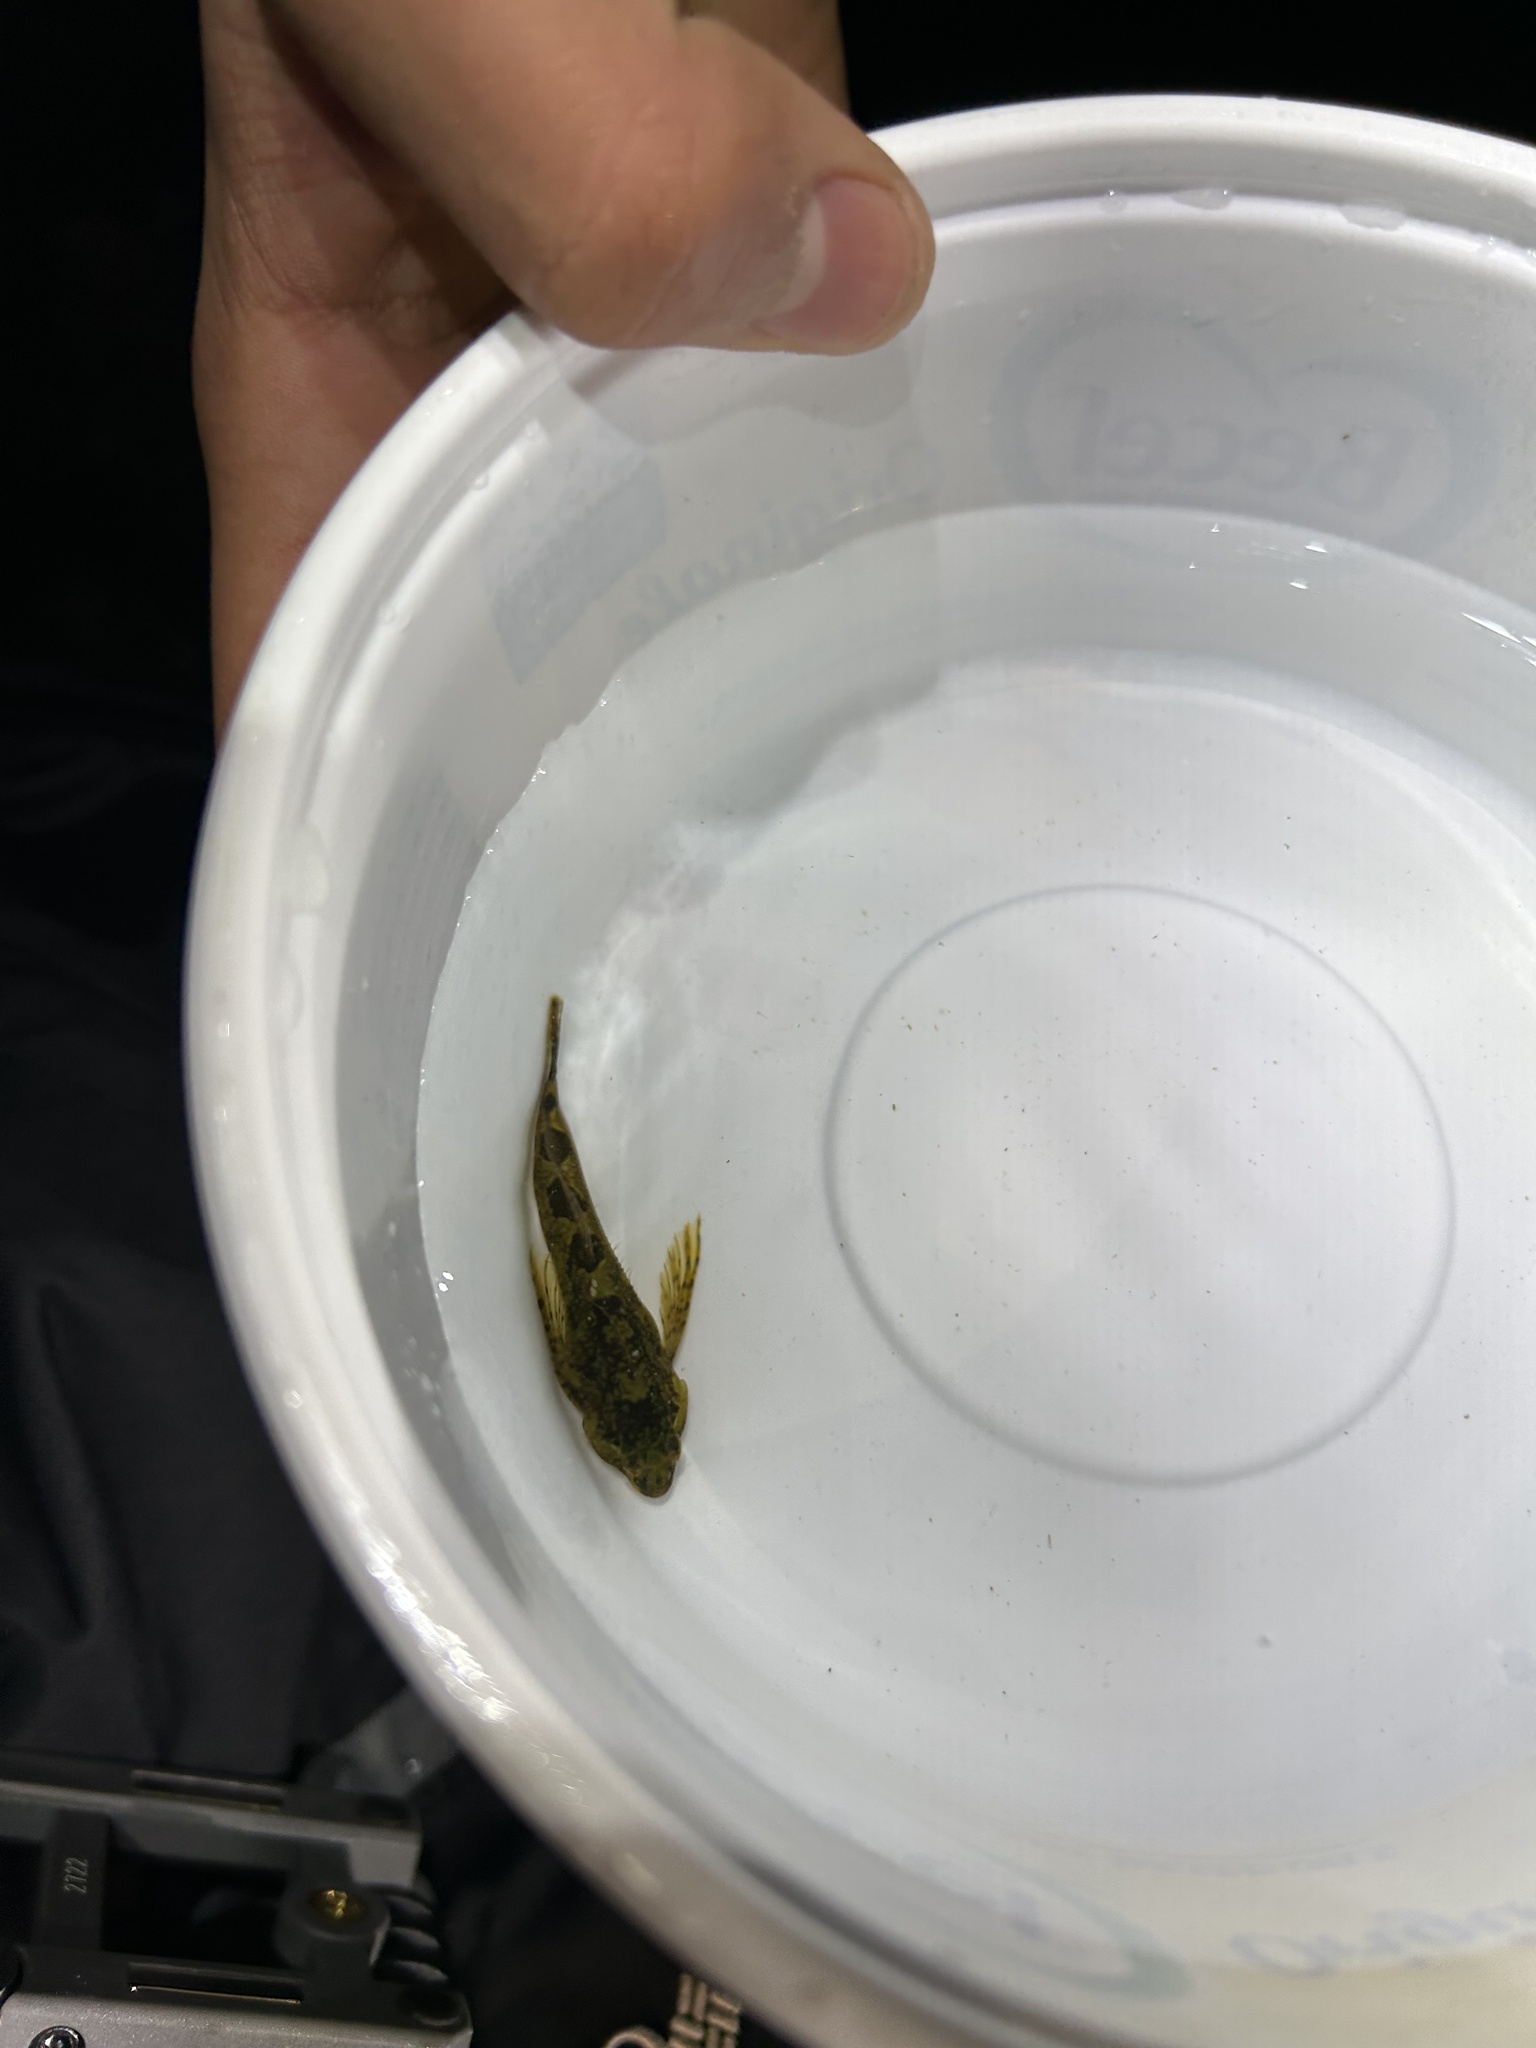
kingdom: Animalia
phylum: Chordata
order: Scorpaeniformes
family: Cottidae
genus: Oligocottus
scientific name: Oligocottus rimensis
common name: Saddleback sculpin
